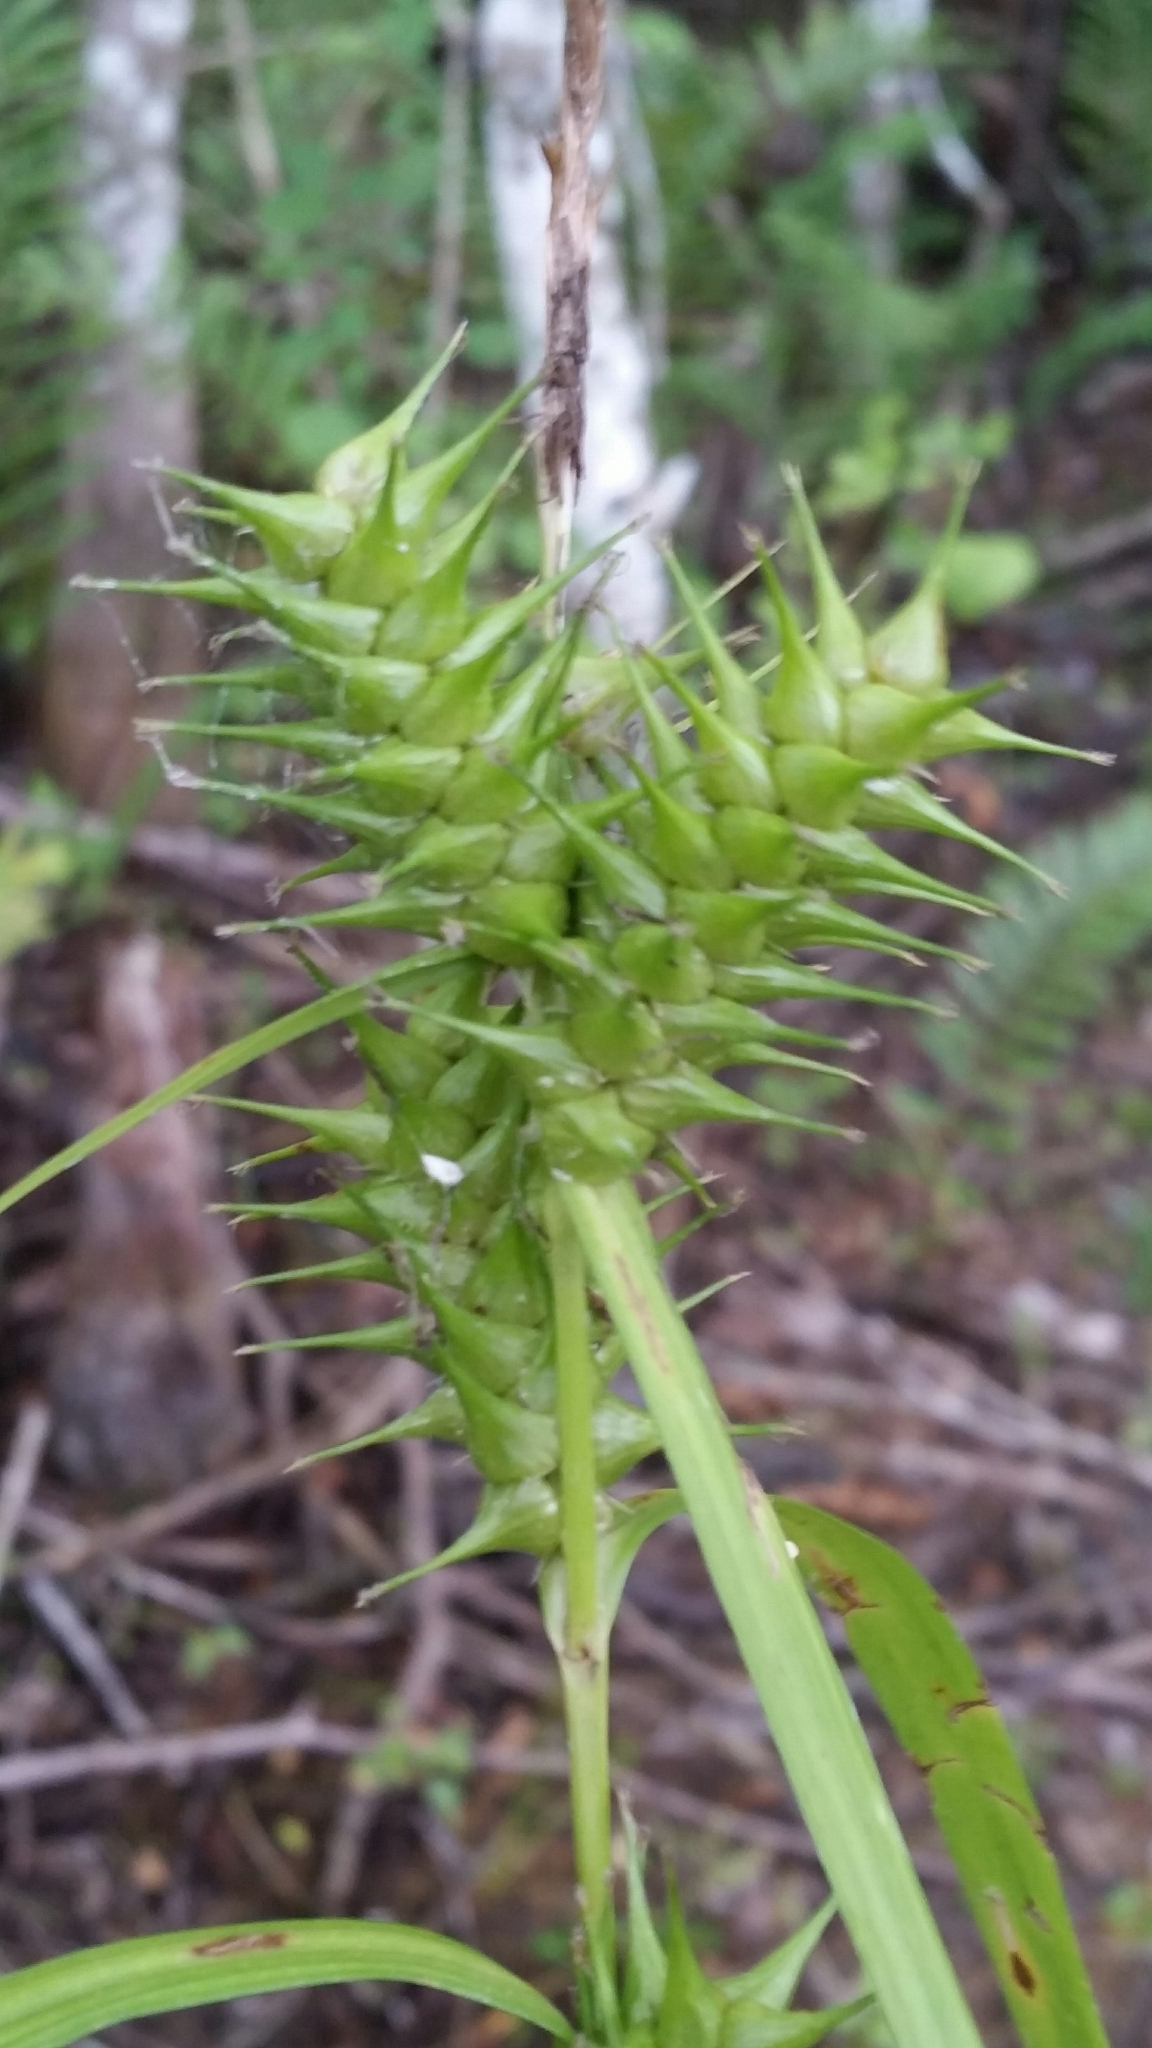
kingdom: Plantae
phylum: Tracheophyta
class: Liliopsida
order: Poales
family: Cyperaceae
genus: Carex
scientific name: Carex gigantea
